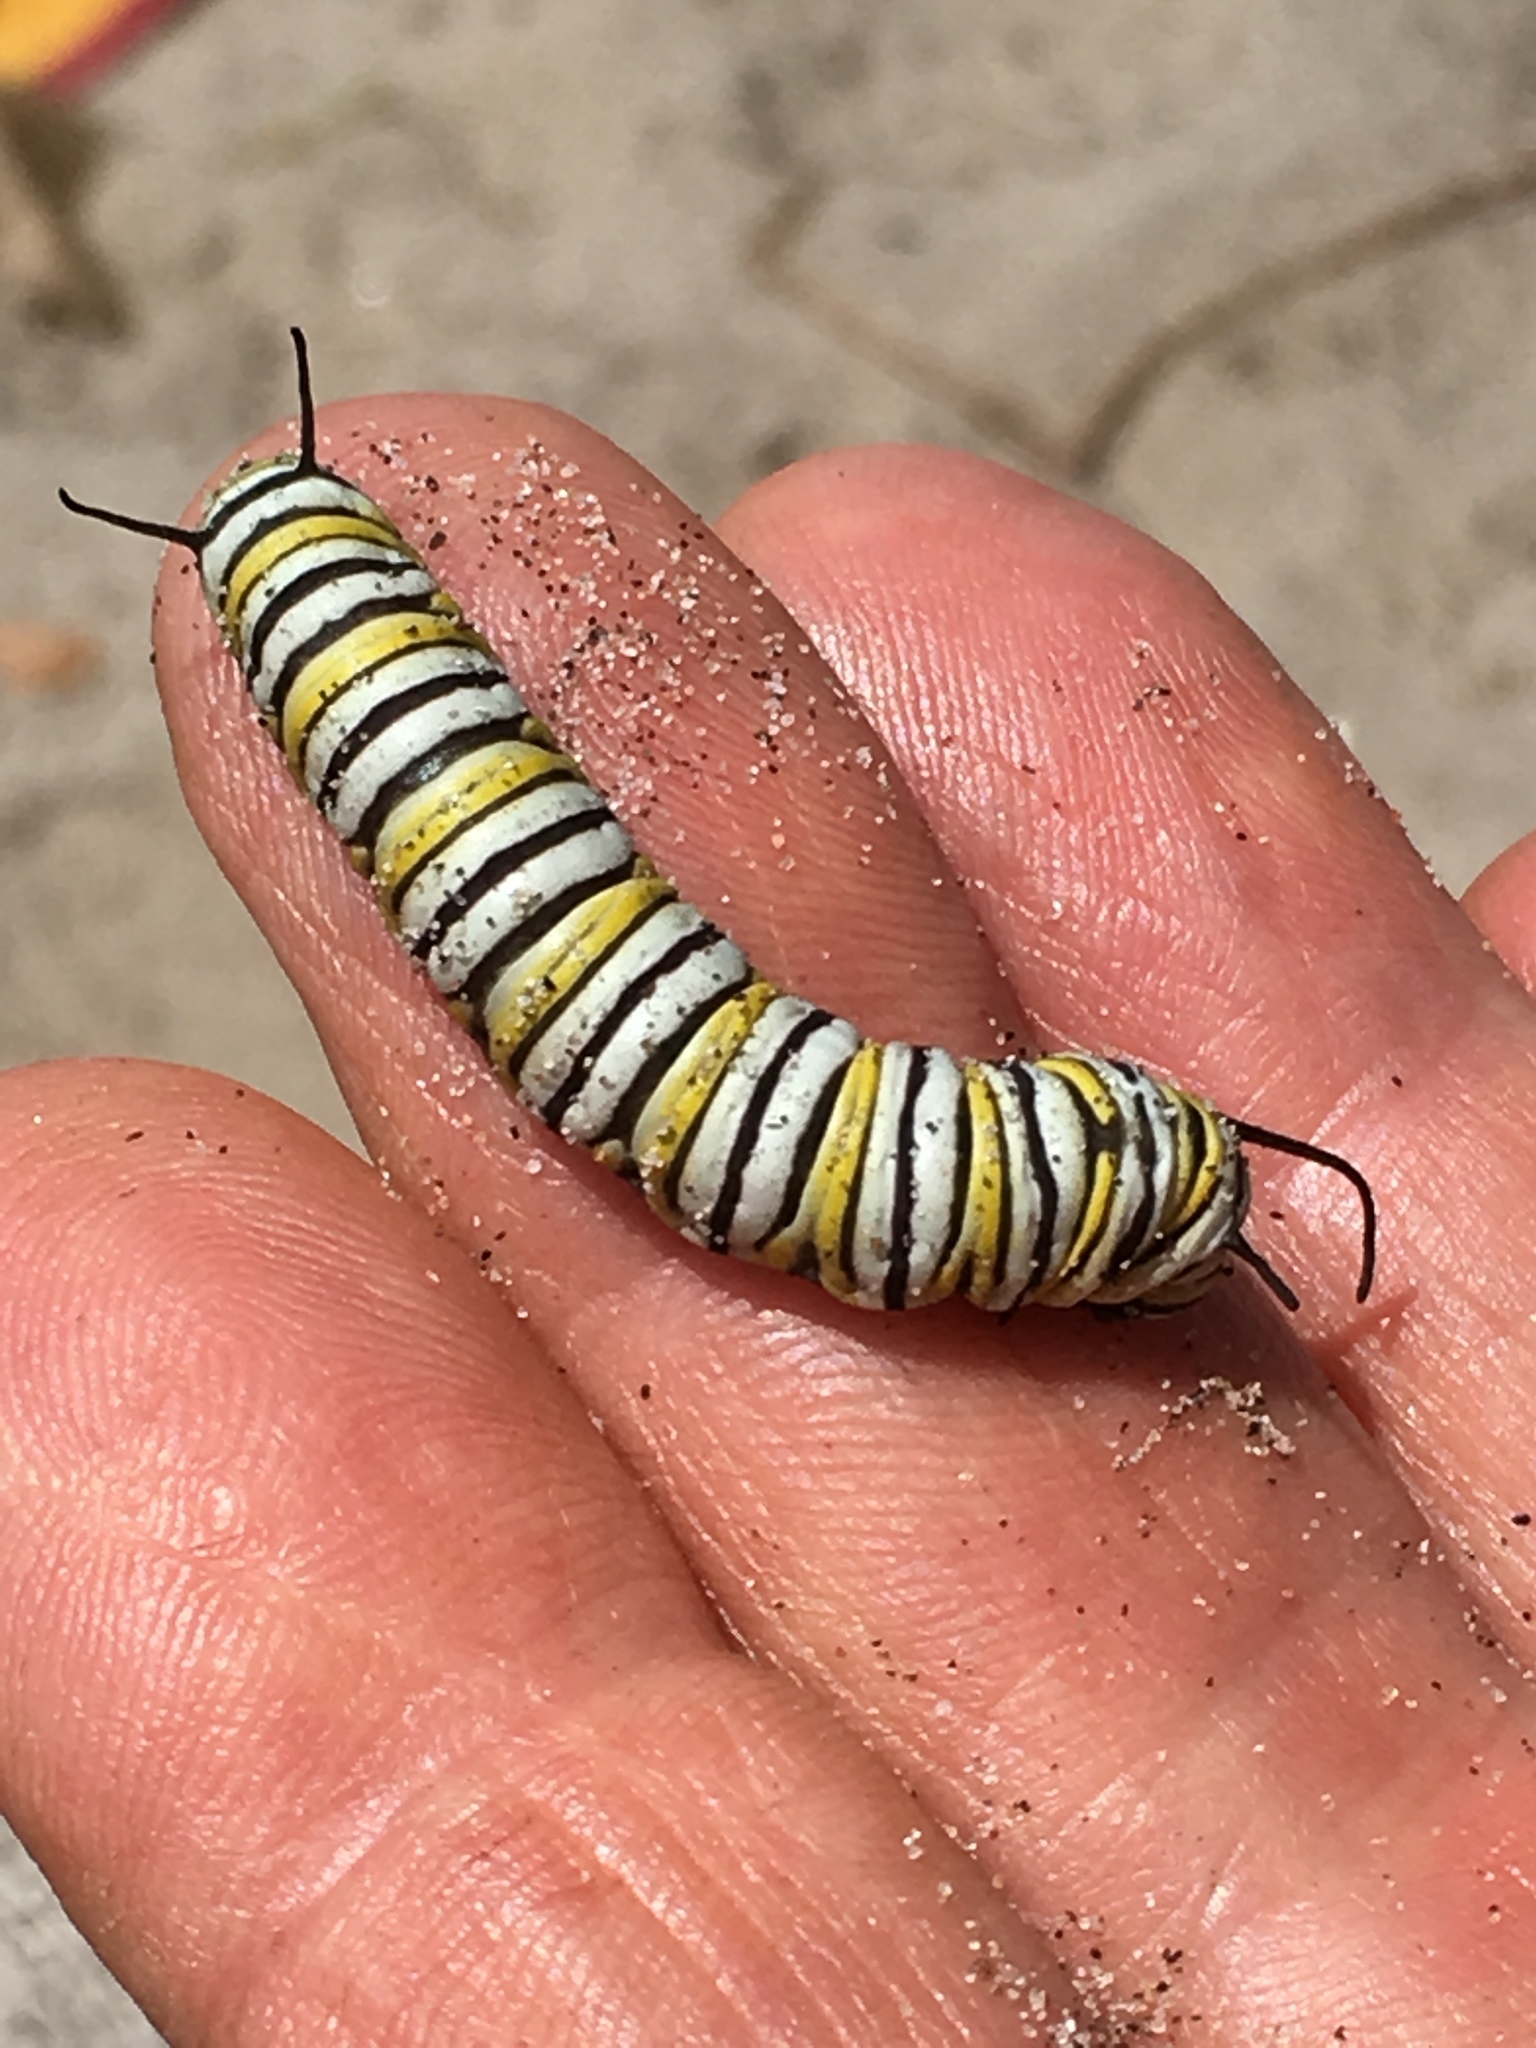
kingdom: Animalia
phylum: Arthropoda
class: Insecta
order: Lepidoptera
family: Nymphalidae
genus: Danaus
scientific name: Danaus plexippus
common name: Monarch
